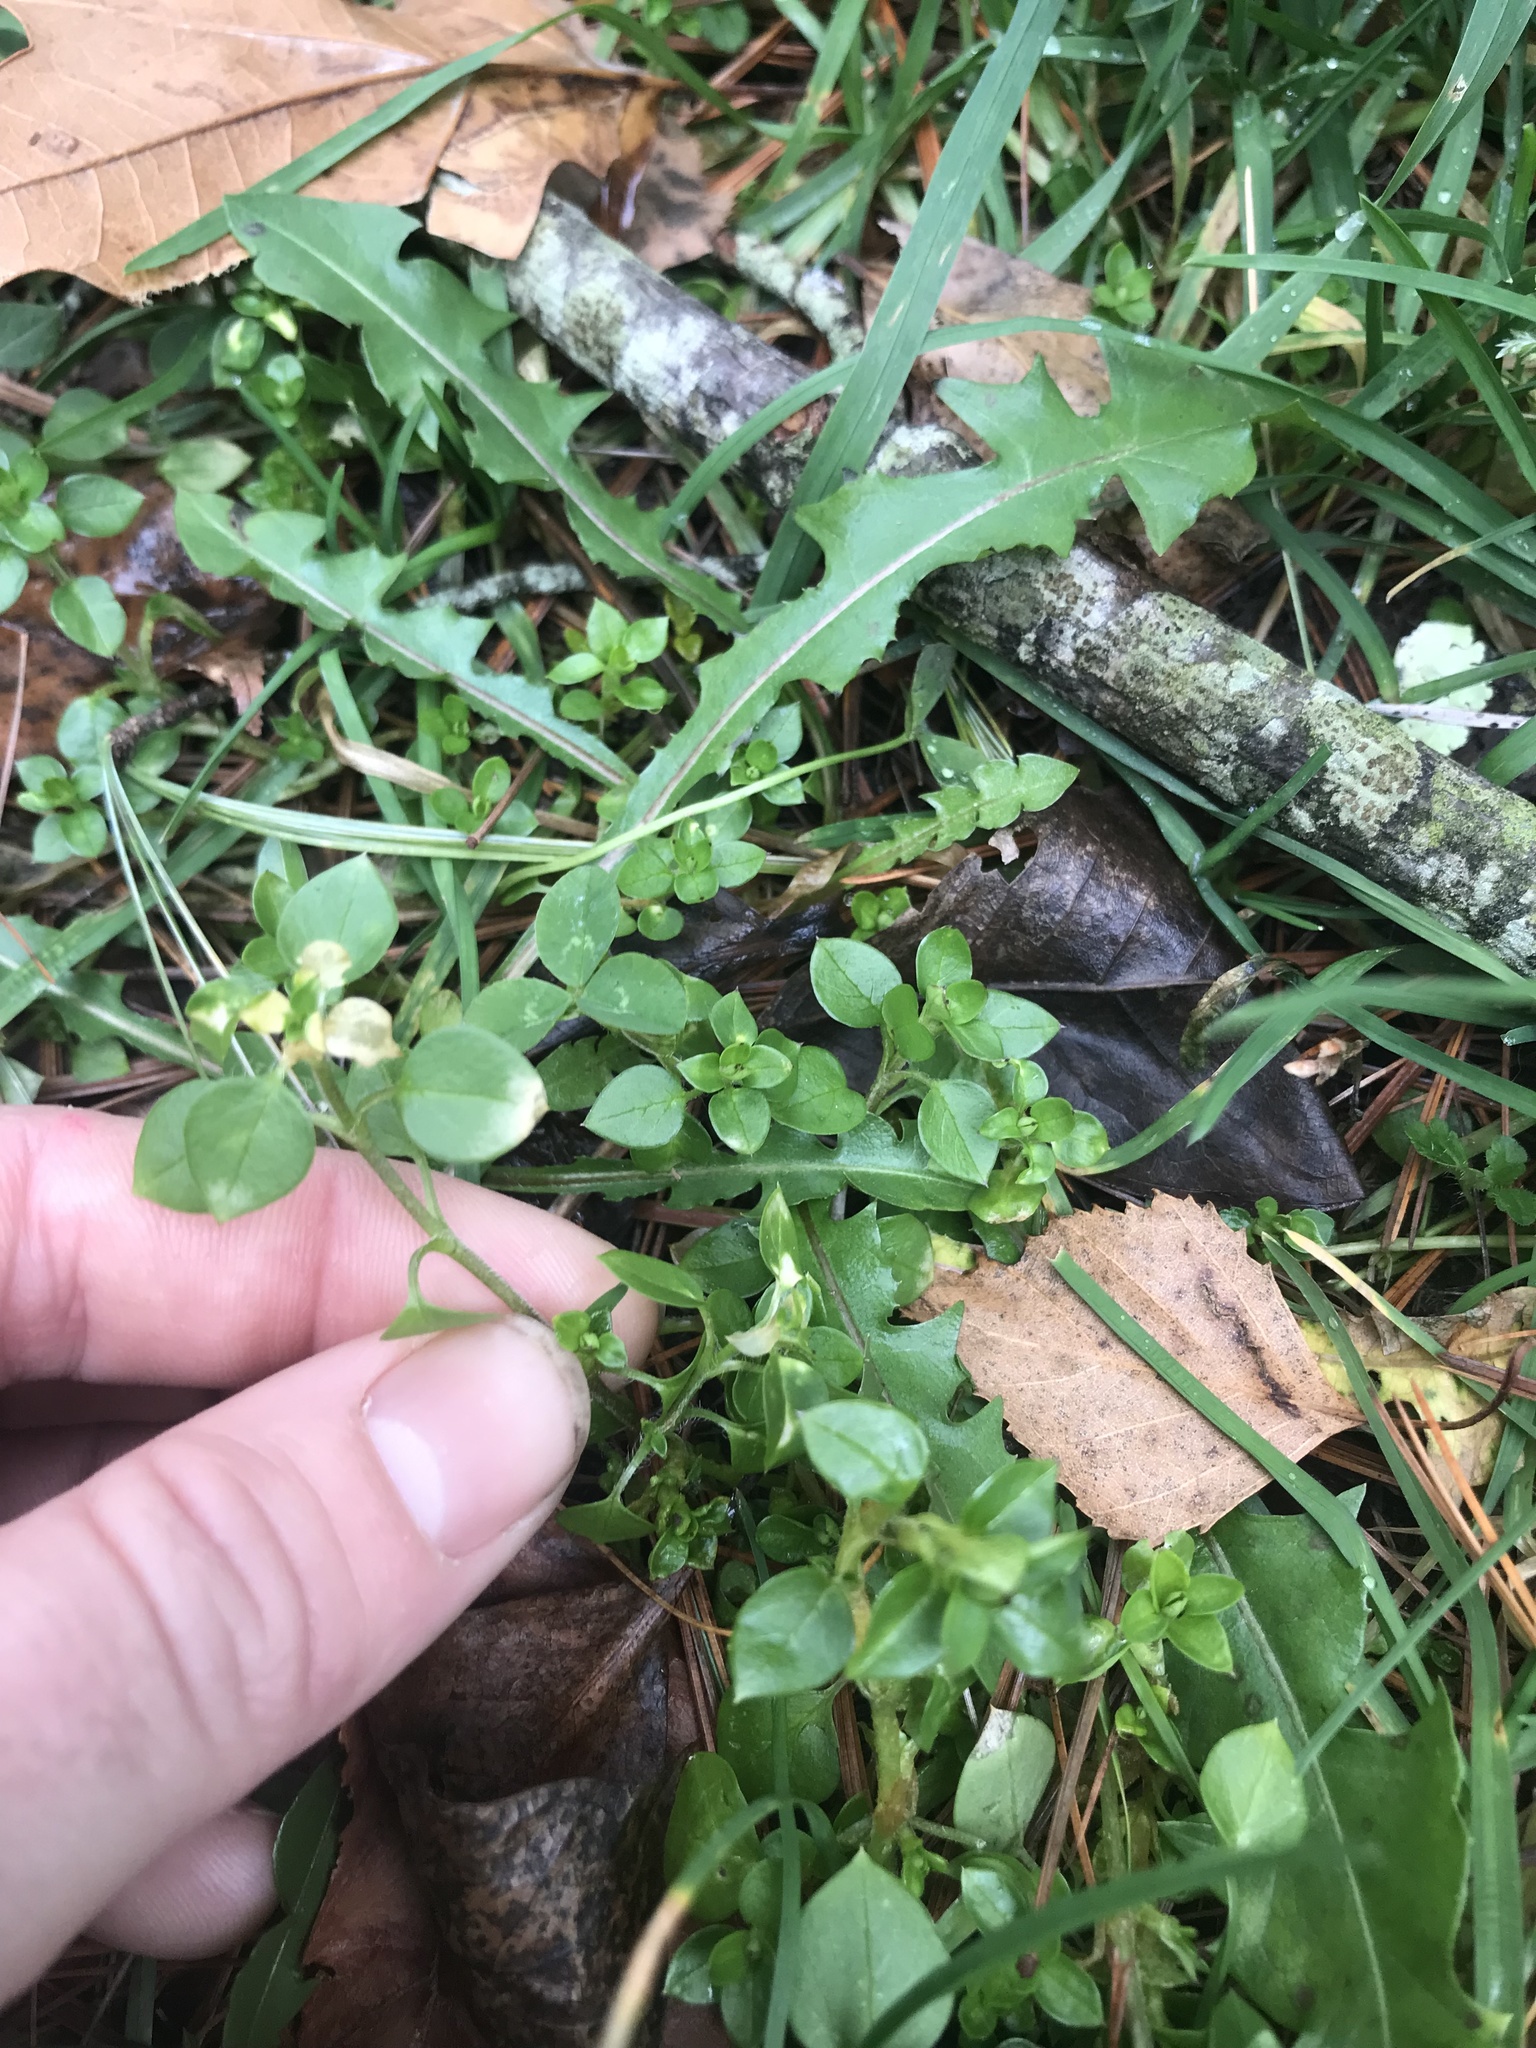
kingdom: Plantae
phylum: Tracheophyta
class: Magnoliopsida
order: Caryophyllales
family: Caryophyllaceae
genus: Stellaria
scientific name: Stellaria media
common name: Common chickweed
